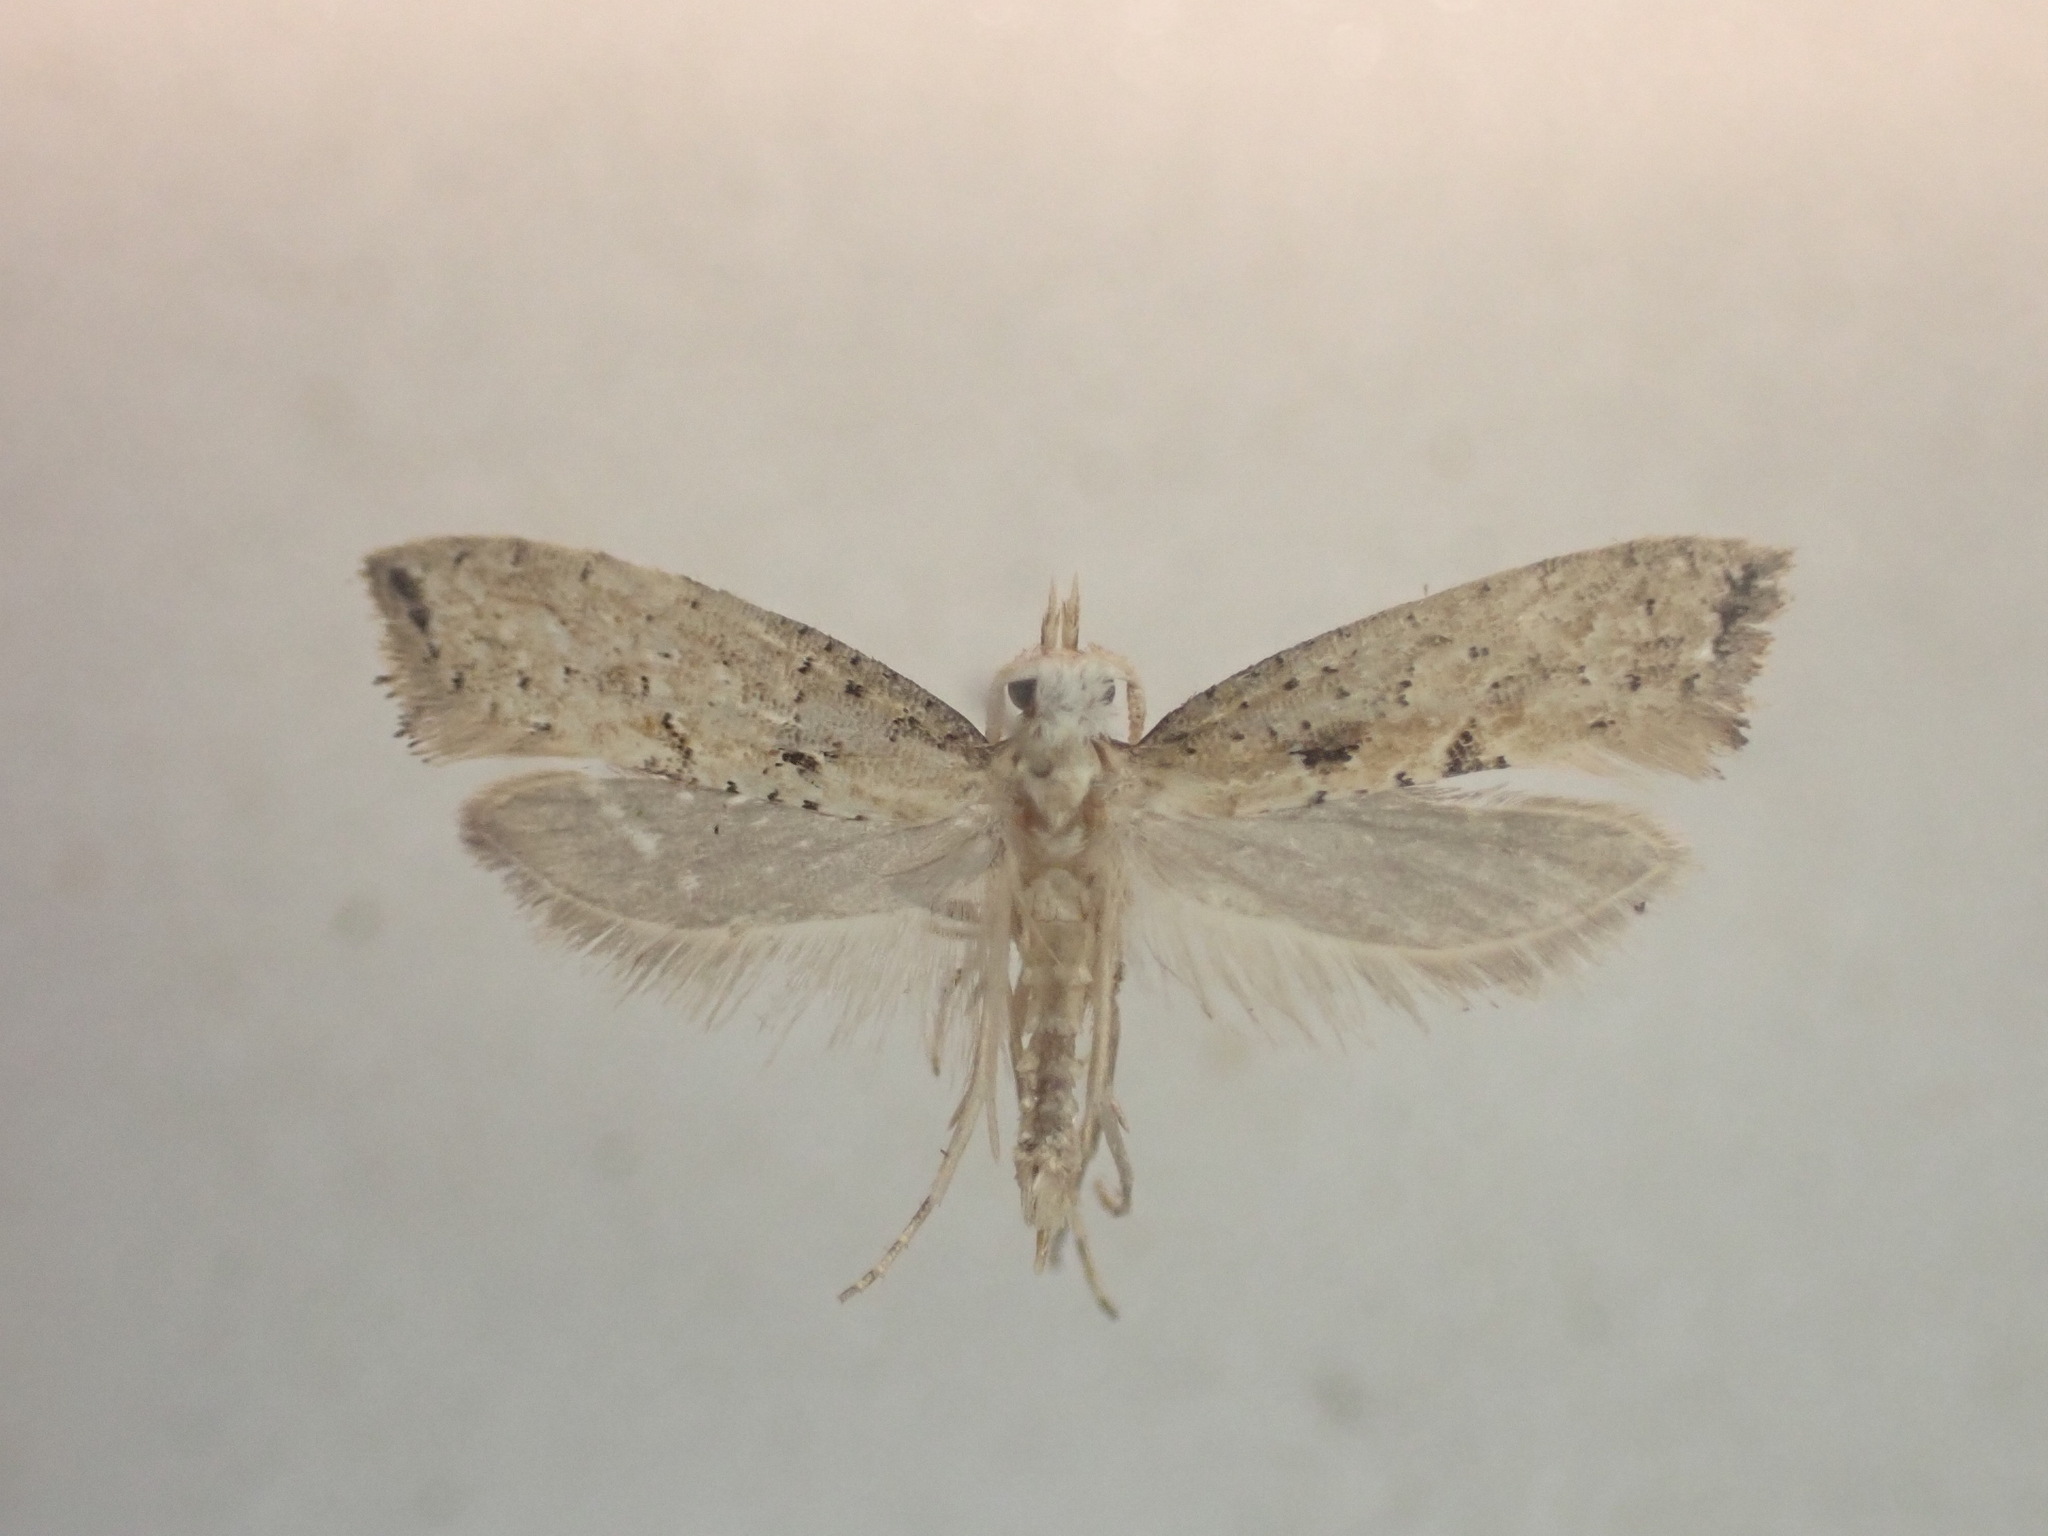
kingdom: Animalia
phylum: Arthropoda
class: Insecta
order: Lepidoptera
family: Plutellidae
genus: Leuroperna
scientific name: Leuroperna sera
